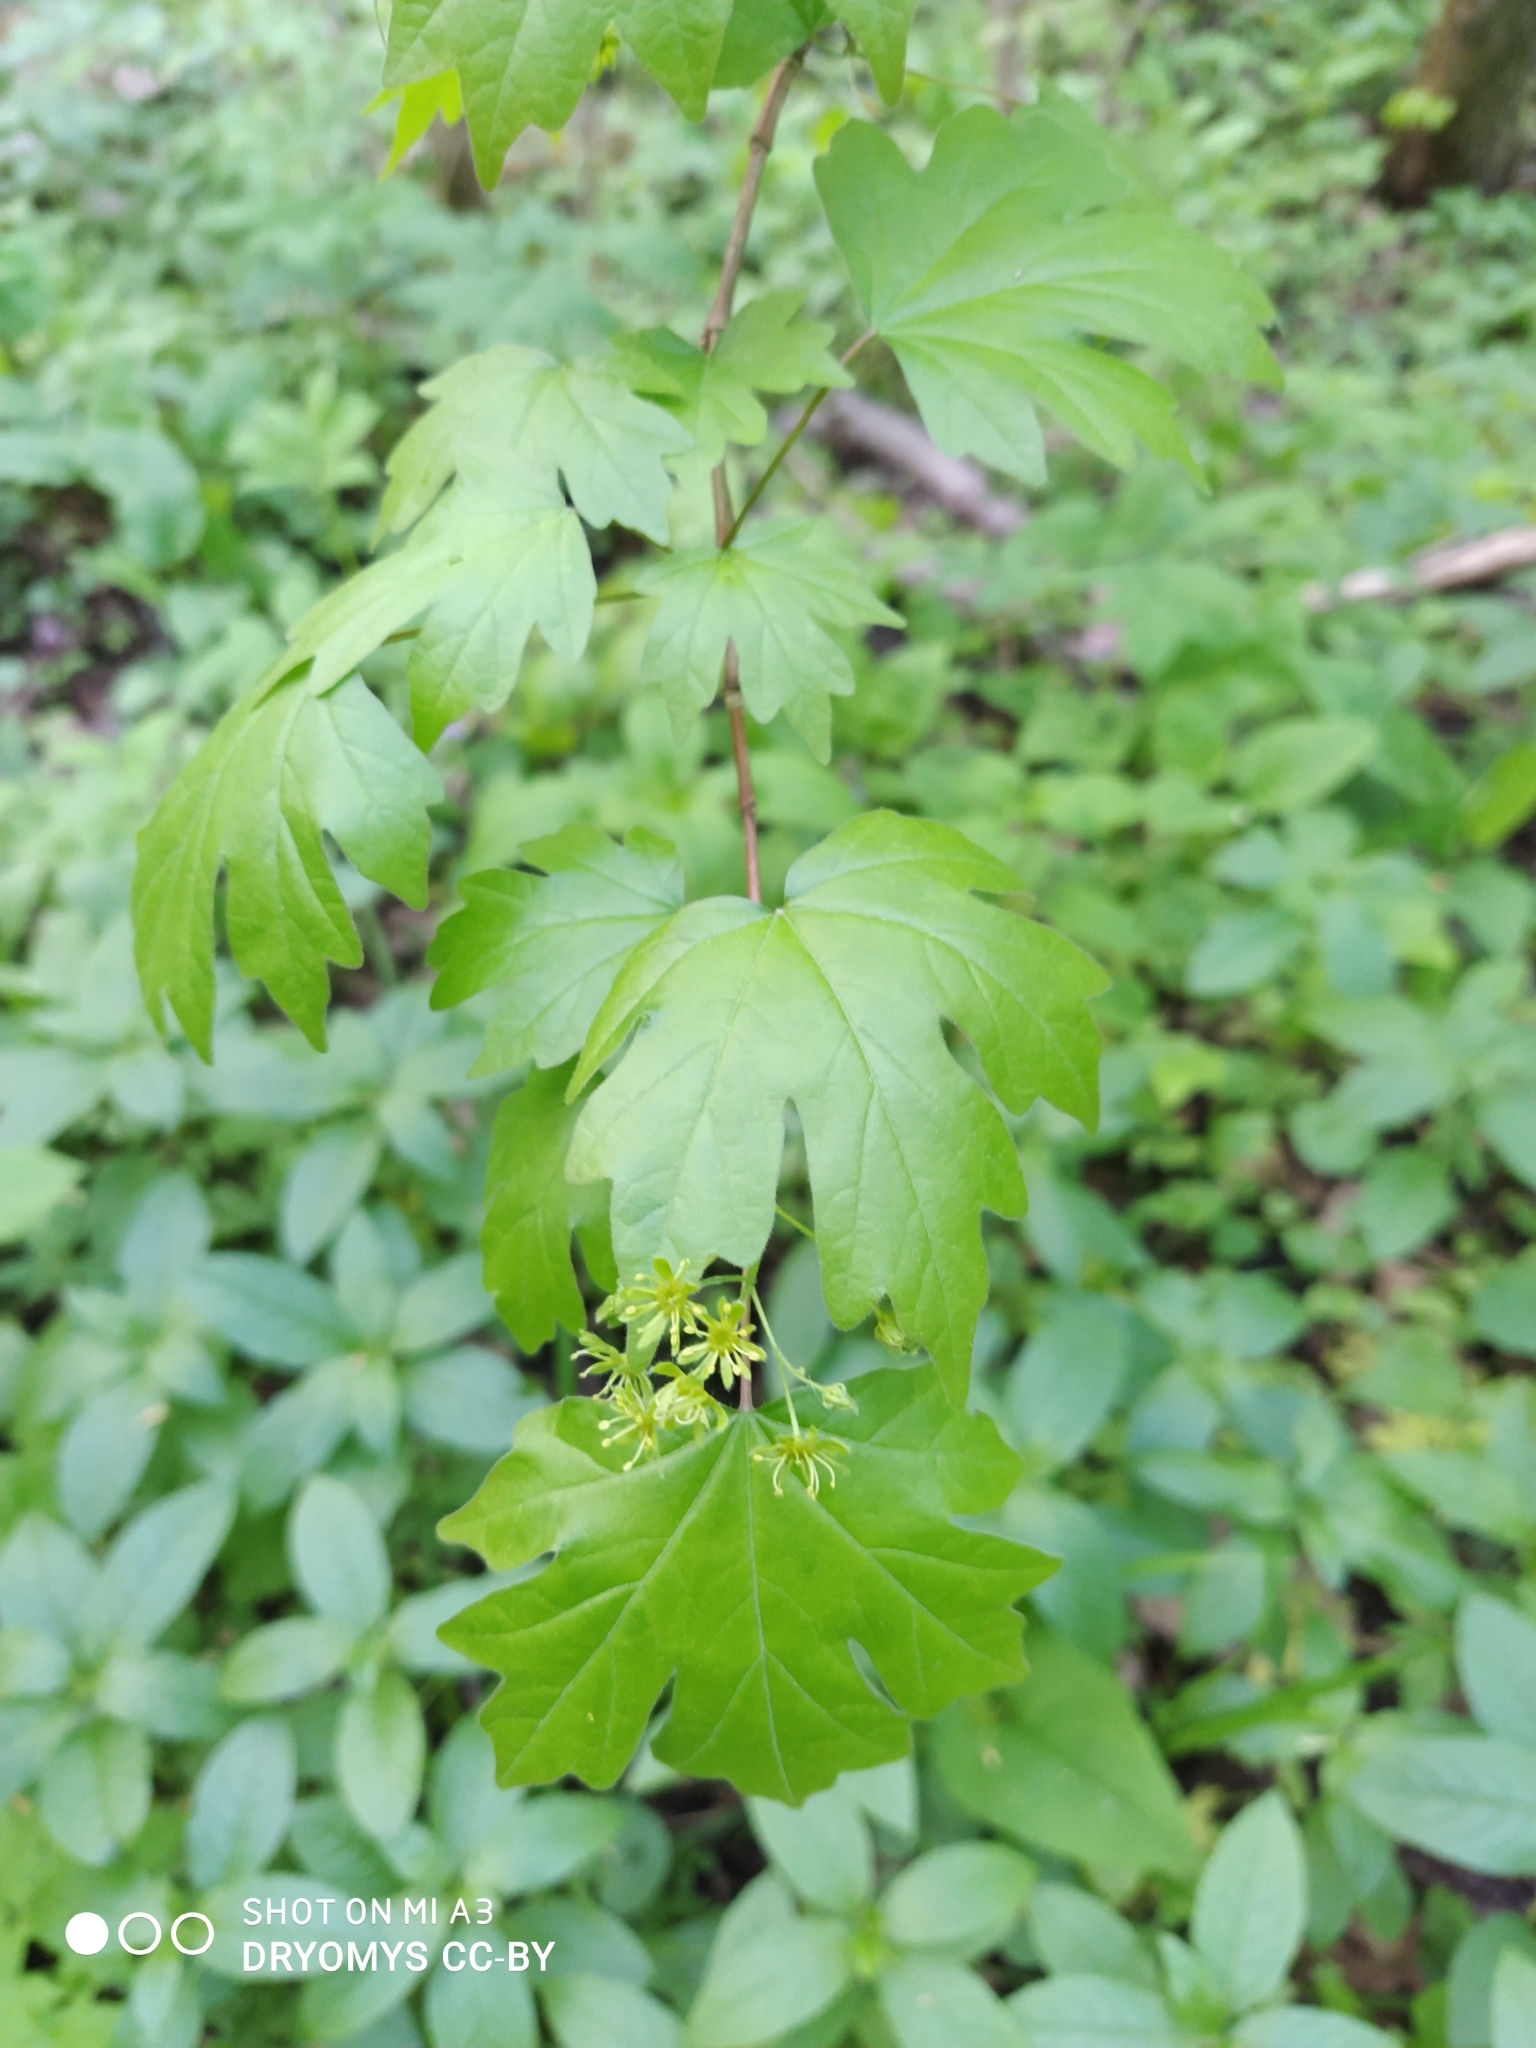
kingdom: Plantae
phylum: Tracheophyta
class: Magnoliopsida
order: Sapindales
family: Sapindaceae
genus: Acer
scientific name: Acer campestre
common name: Field maple
